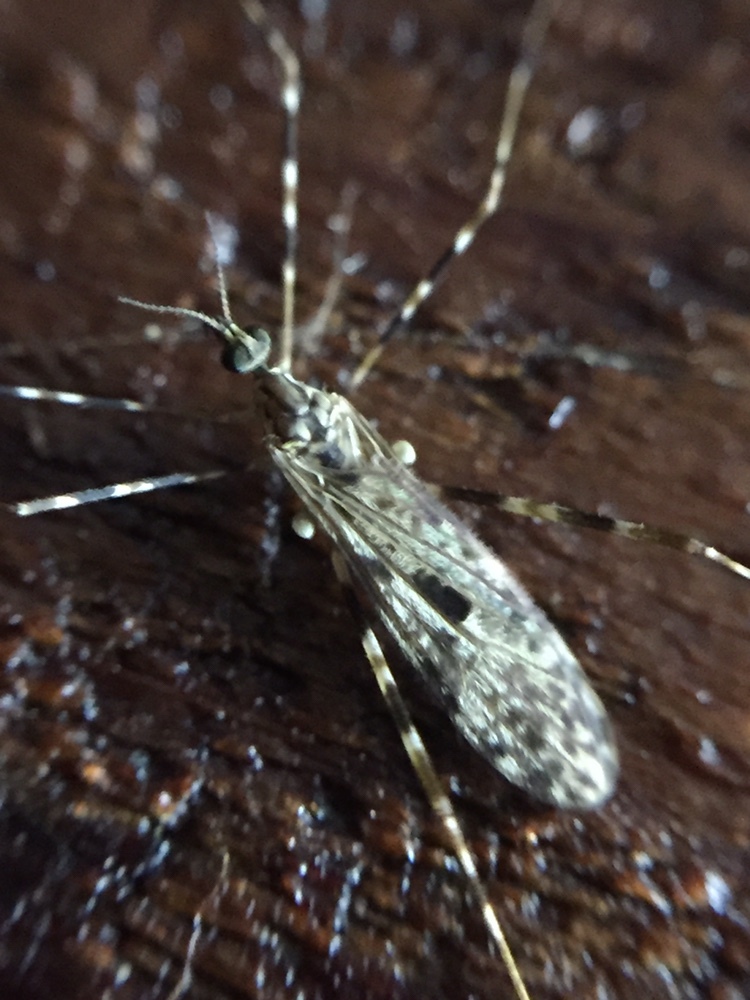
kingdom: Animalia
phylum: Arthropoda
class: Insecta
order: Diptera
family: Limoniidae
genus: Amphineurus
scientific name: Amphineurus hudsoni
